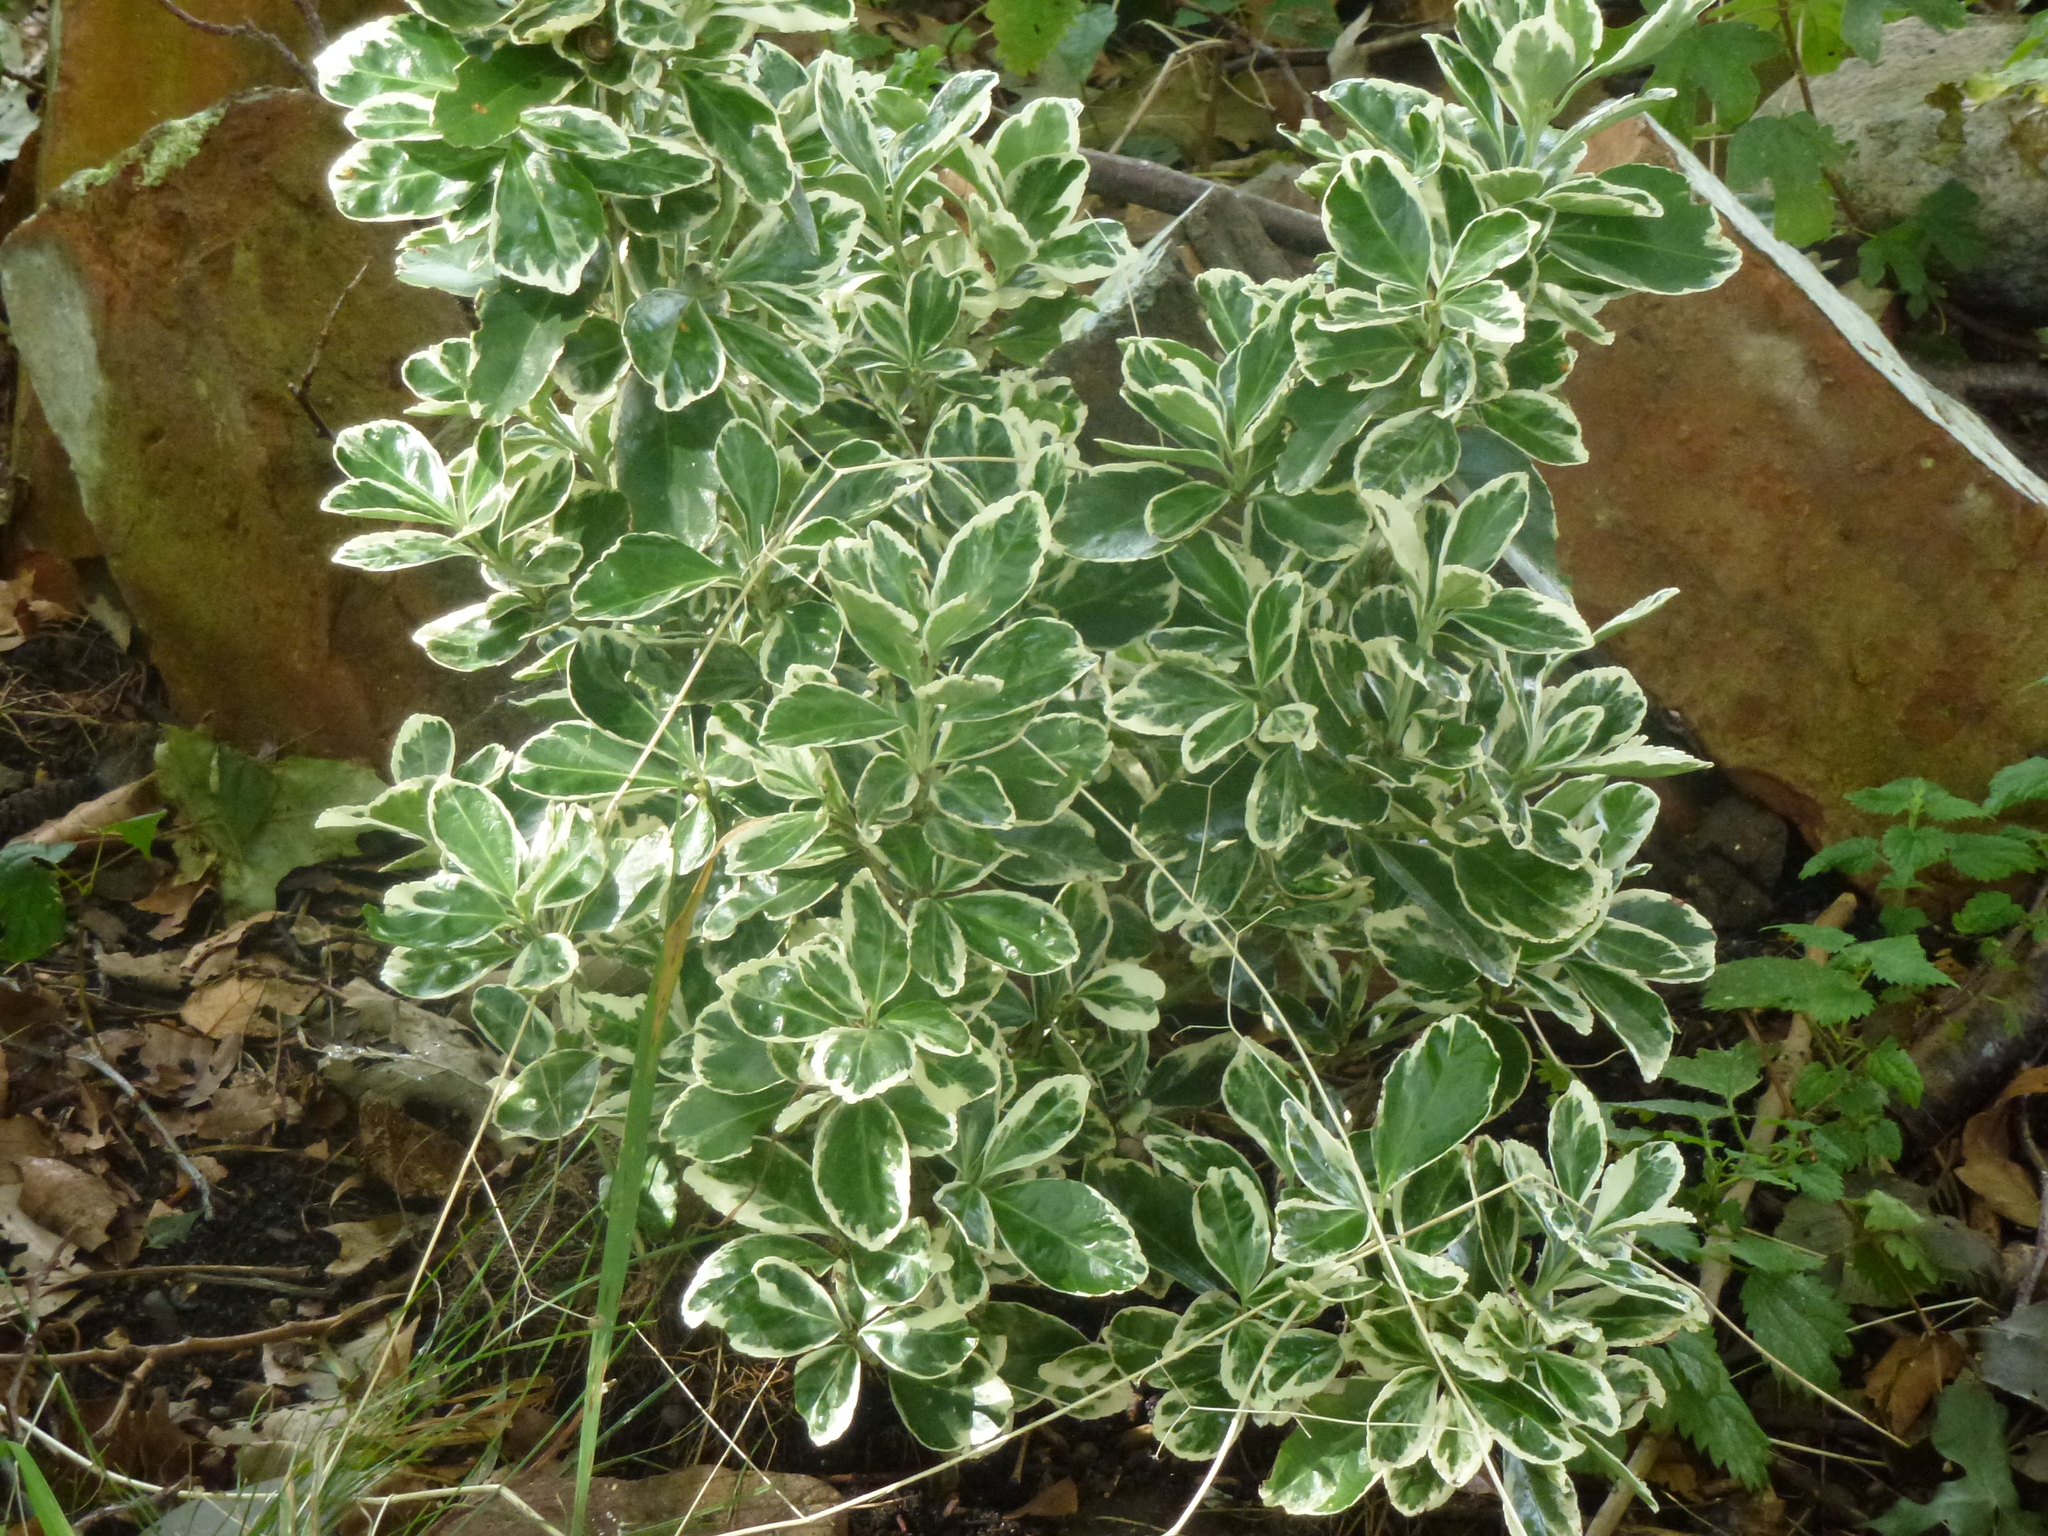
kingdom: Plantae
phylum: Tracheophyta
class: Magnoliopsida
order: Celastrales
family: Celastraceae
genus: Euonymus
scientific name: Euonymus japonicus
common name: Japanese spindletree
